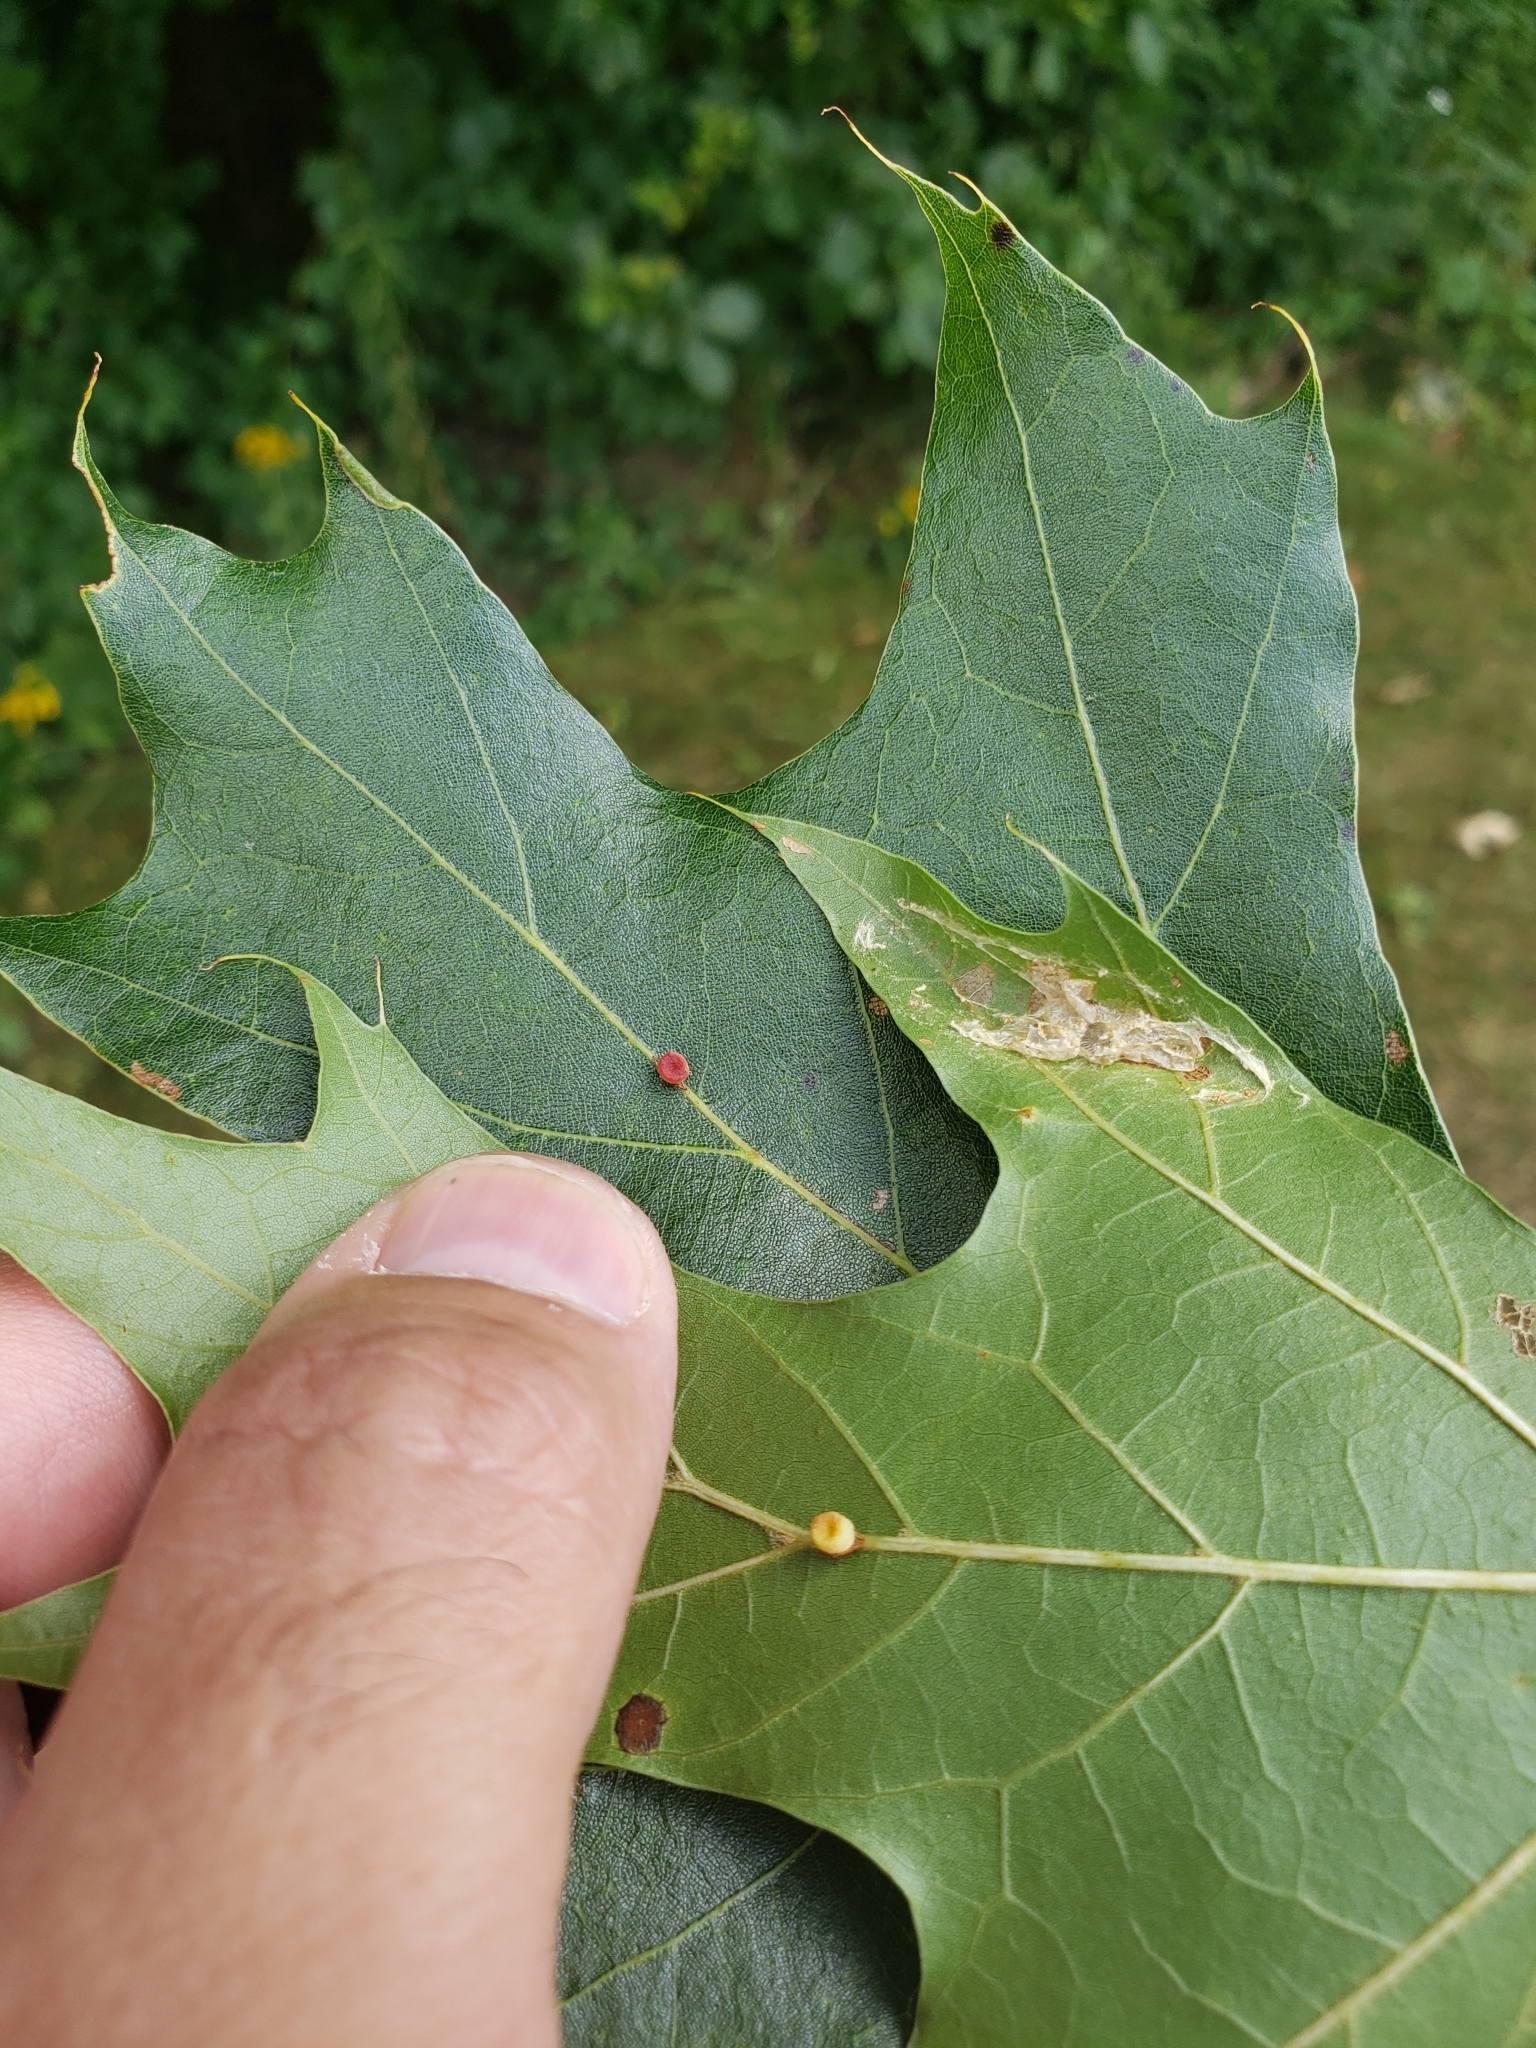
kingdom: Animalia
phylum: Arthropoda
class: Insecta
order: Hymenoptera
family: Cynipidae
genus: Kokkocynips
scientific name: Kokkocynips rileyi
